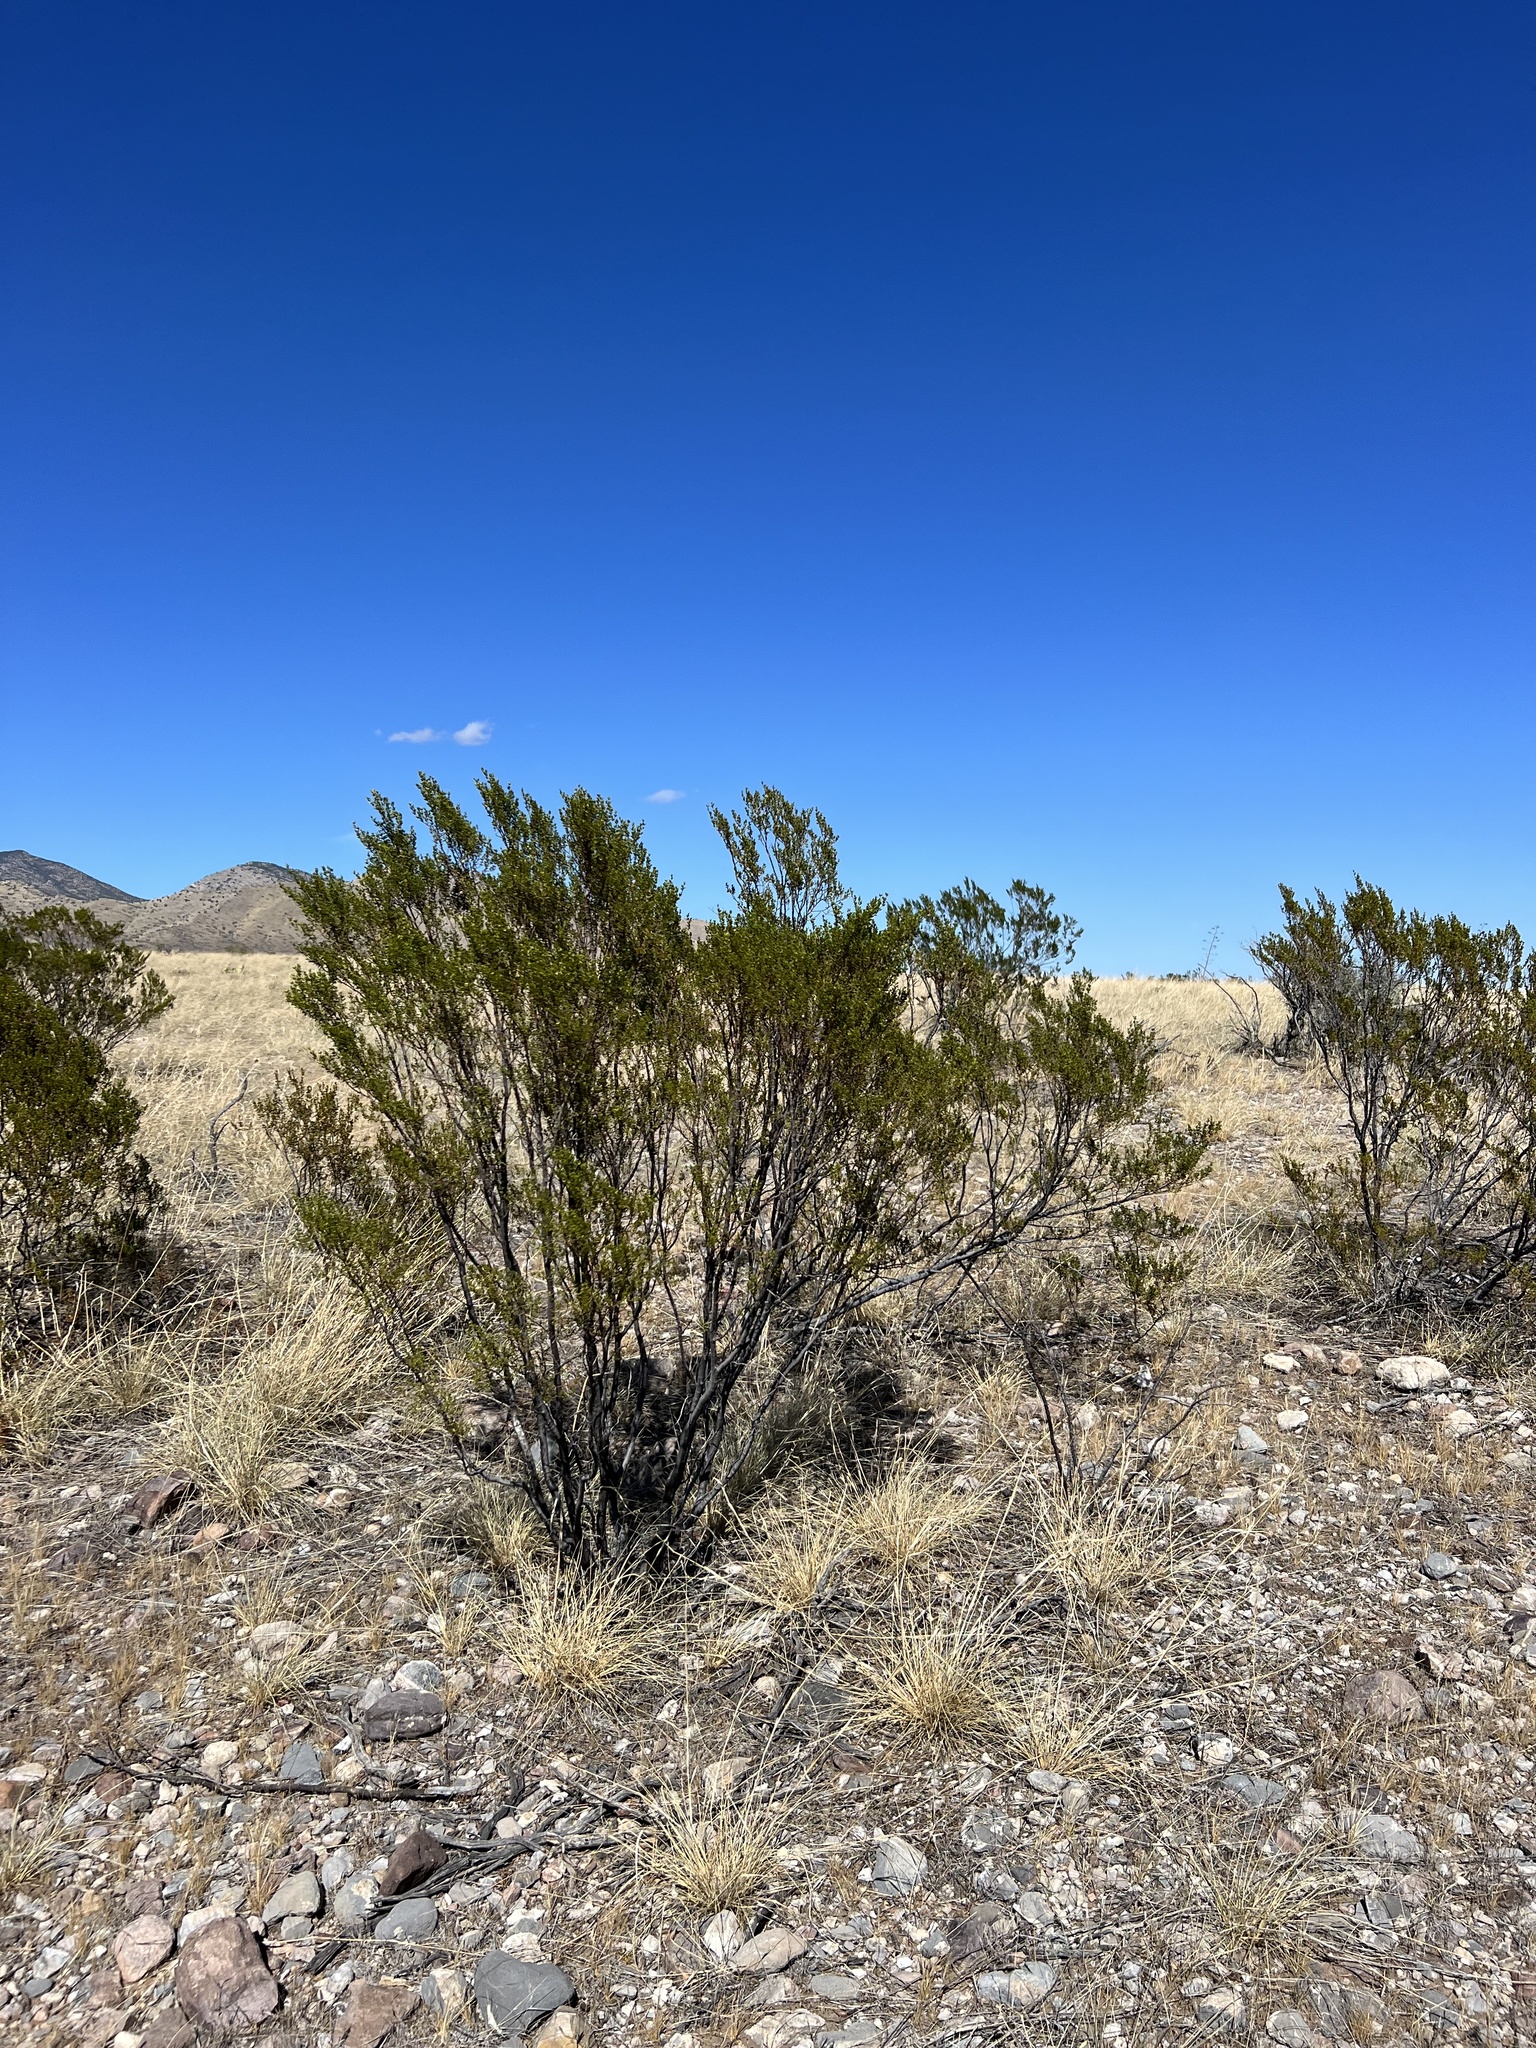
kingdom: Plantae
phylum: Tracheophyta
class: Magnoliopsida
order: Zygophyllales
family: Zygophyllaceae
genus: Larrea
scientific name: Larrea tridentata
